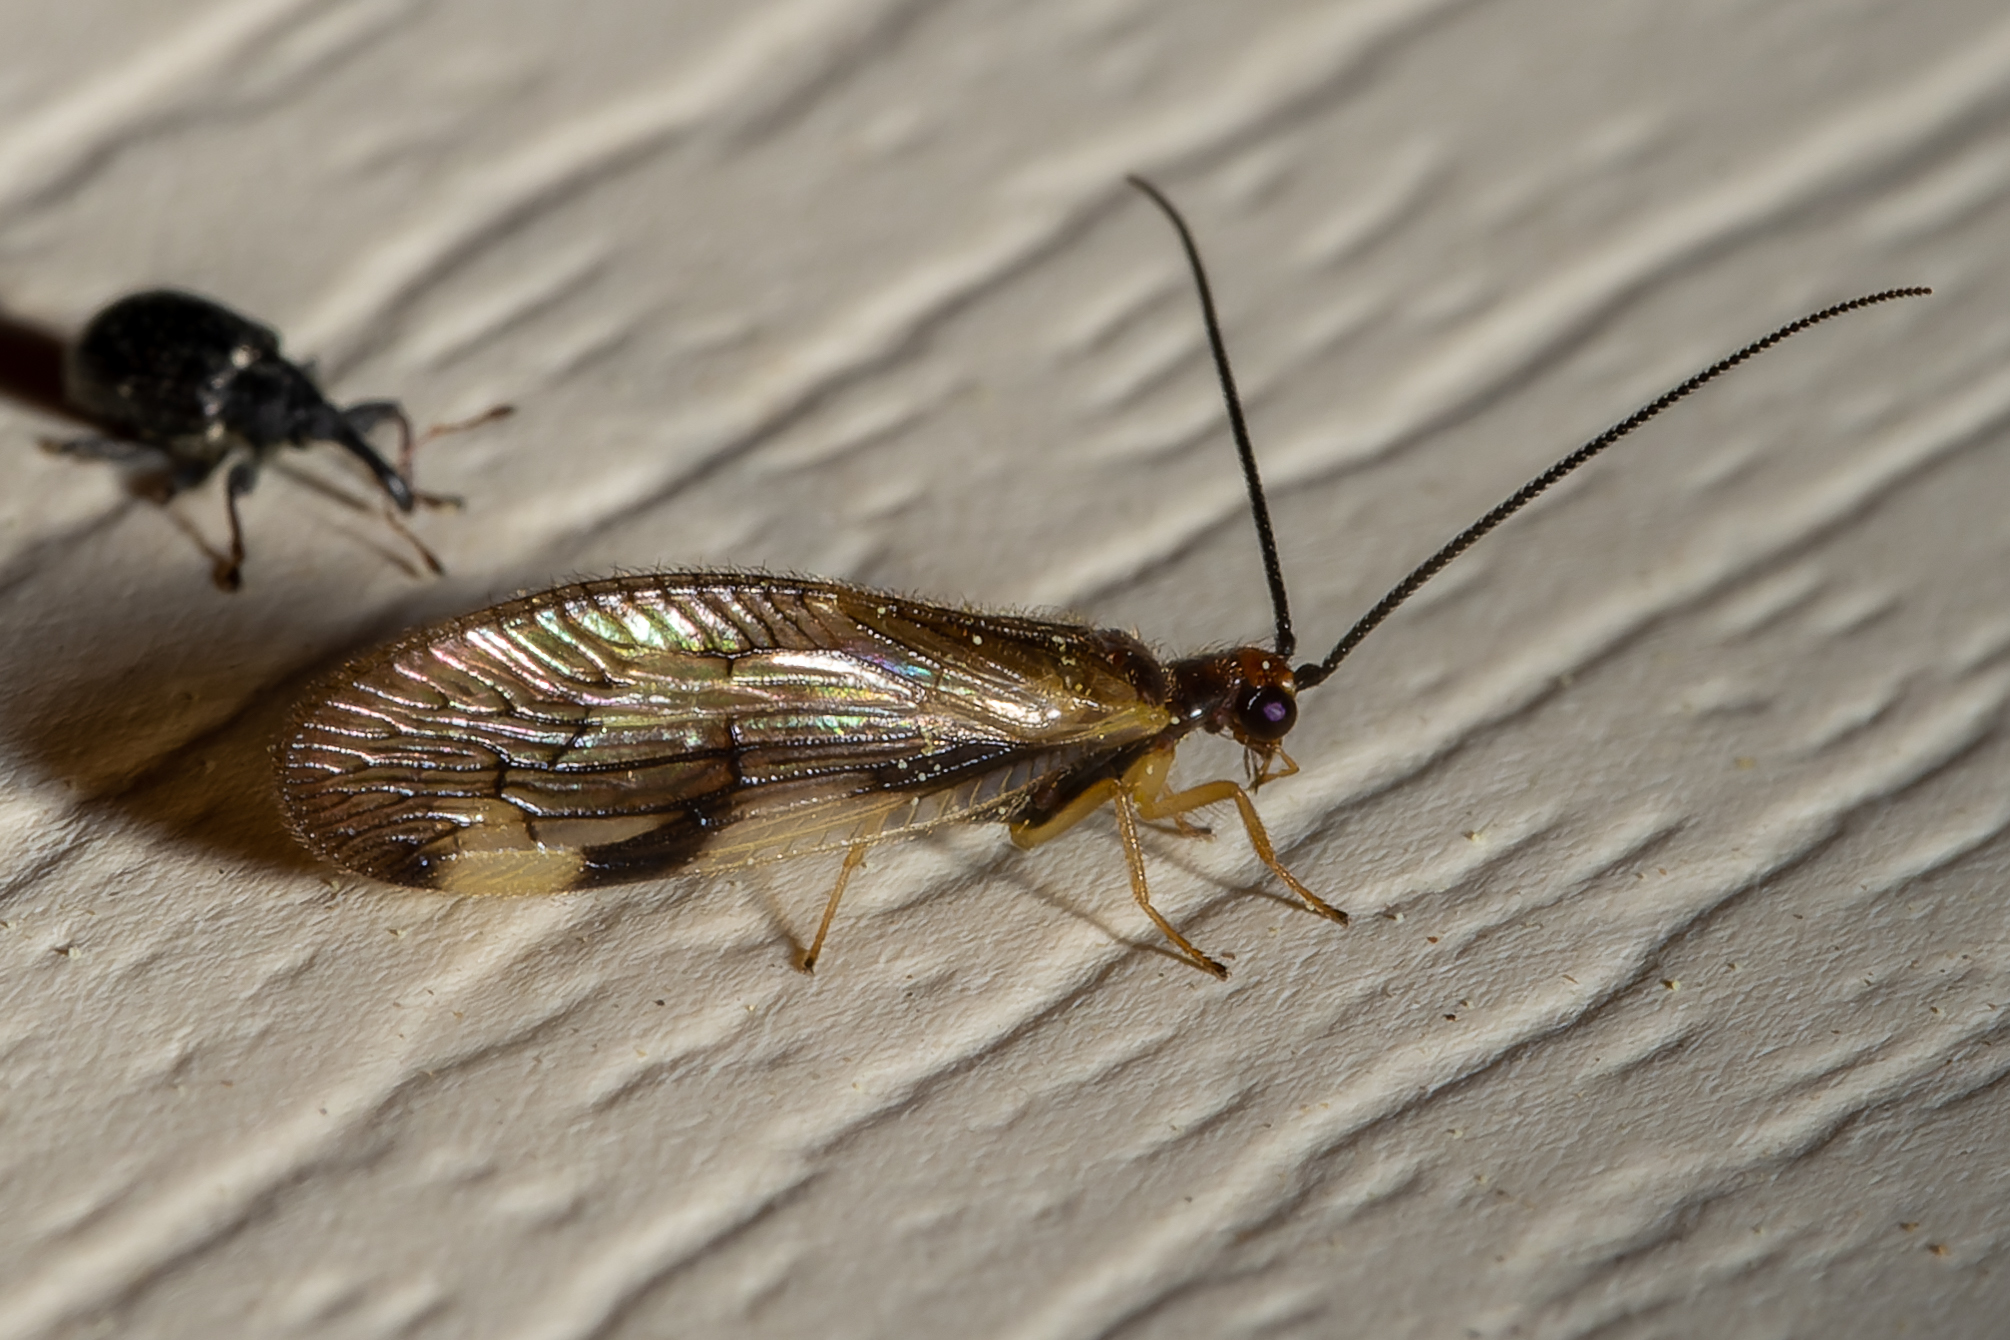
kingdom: Animalia
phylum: Arthropoda
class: Insecta
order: Neuroptera
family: Sisyridae
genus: Climacia
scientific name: Climacia areolaris
